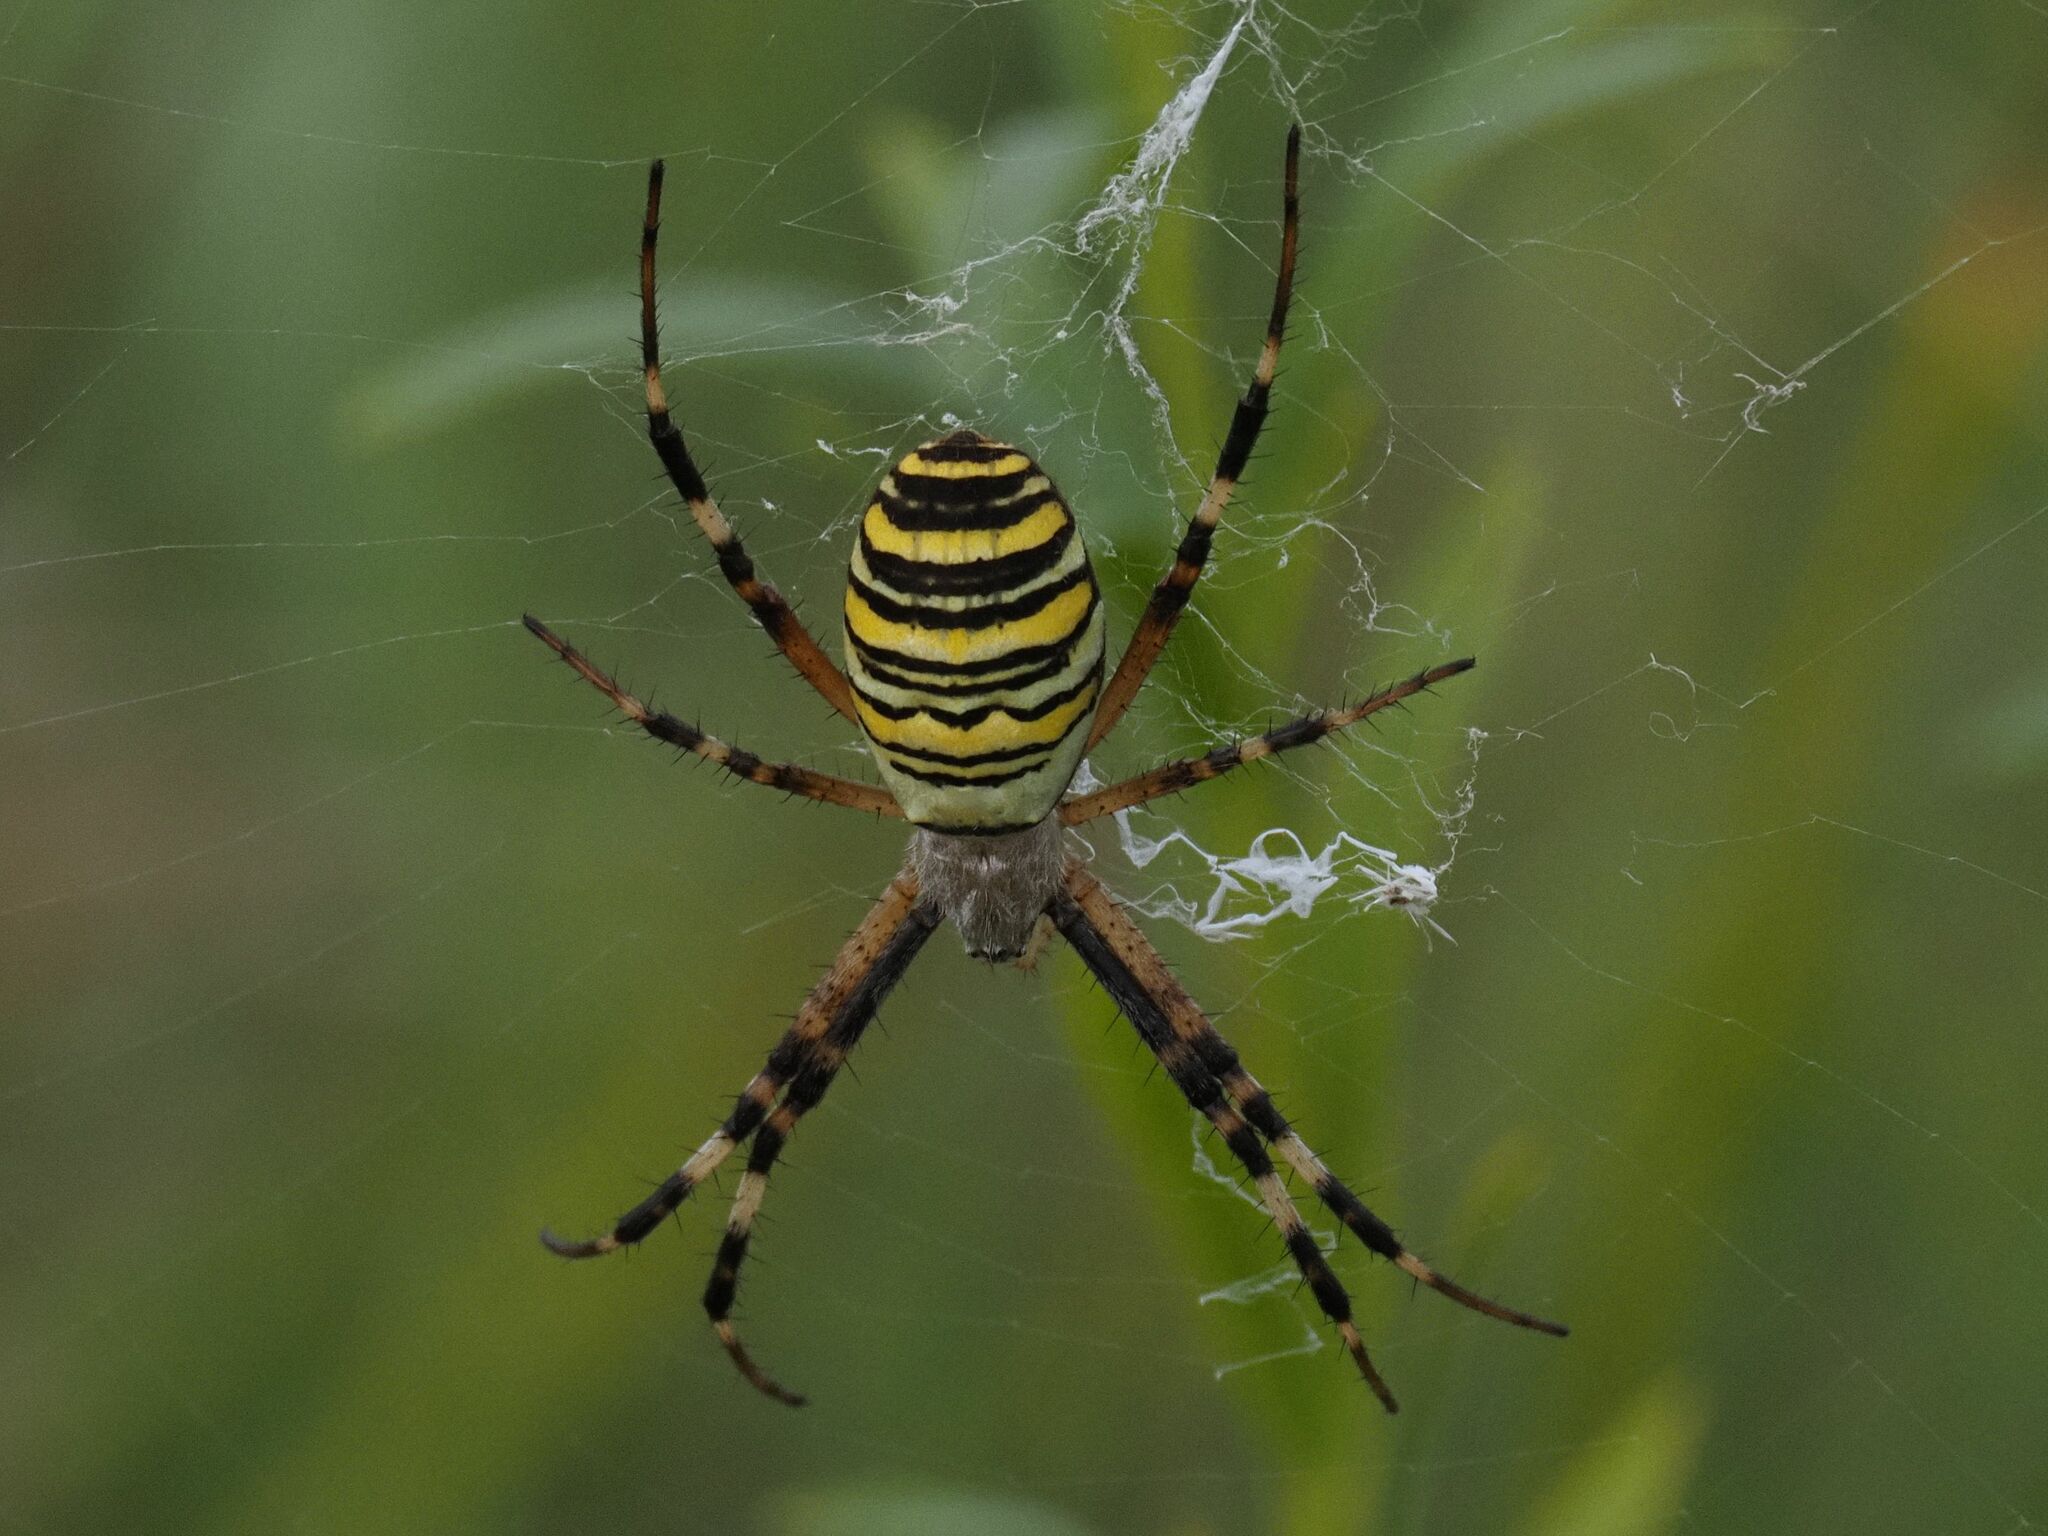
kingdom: Animalia
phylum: Arthropoda
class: Arachnida
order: Araneae
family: Araneidae
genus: Argiope
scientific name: Argiope bruennichi
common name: Wasp spider
